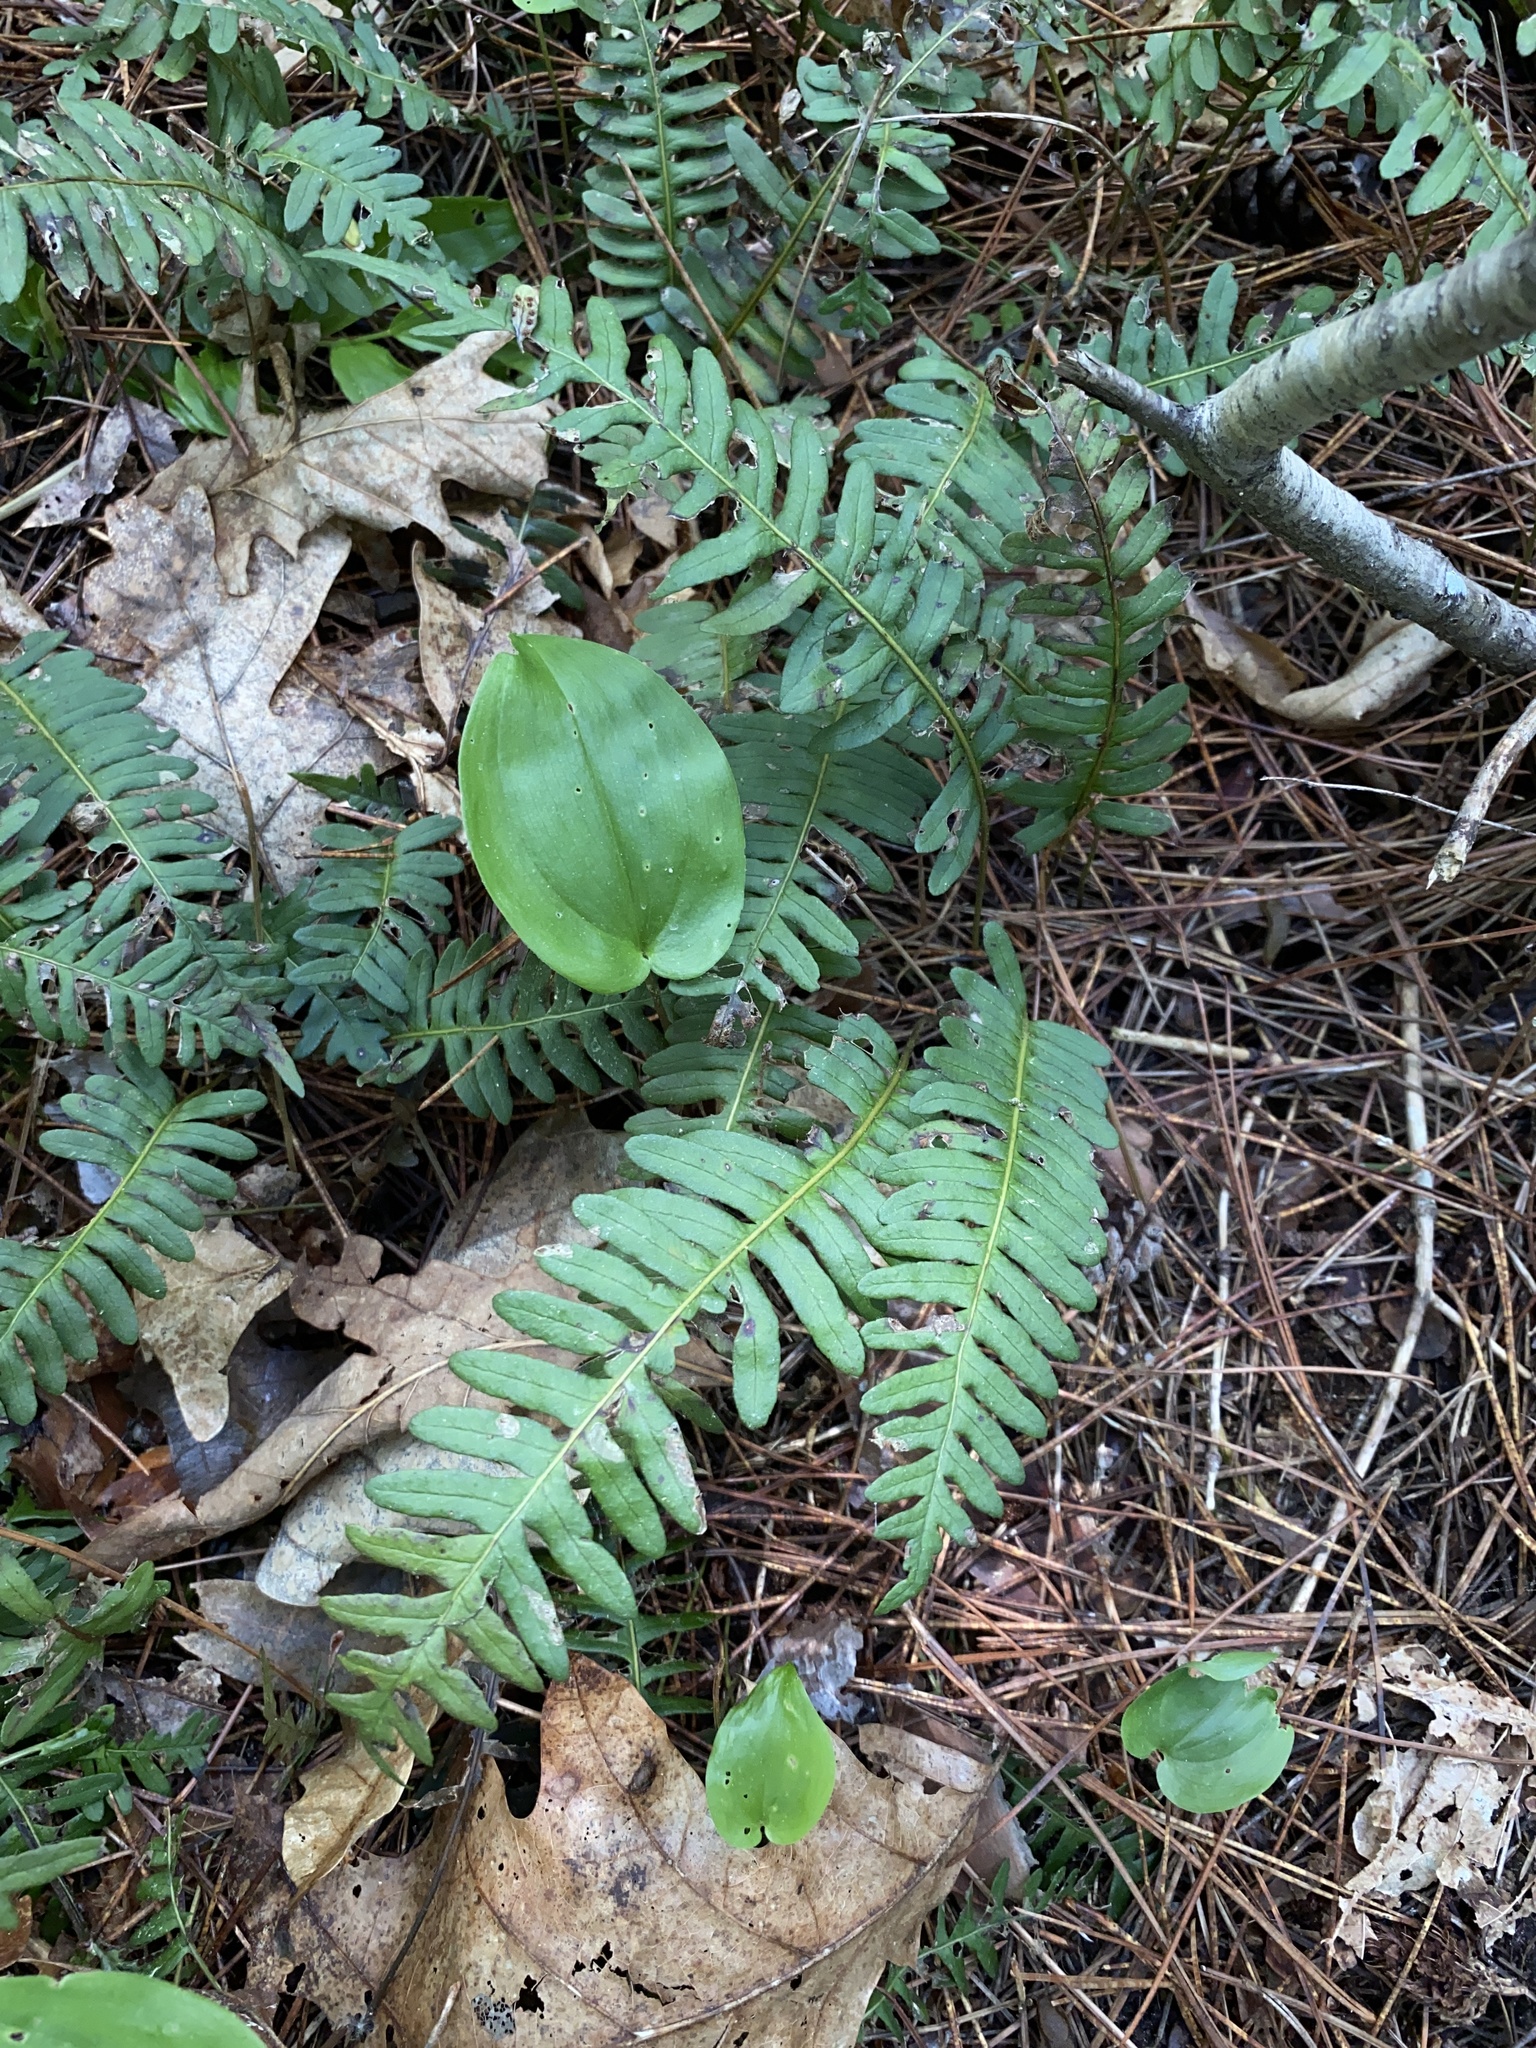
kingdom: Plantae
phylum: Tracheophyta
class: Polypodiopsida
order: Polypodiales
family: Polypodiaceae
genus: Polypodium
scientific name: Polypodium virginianum
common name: American wall fern
